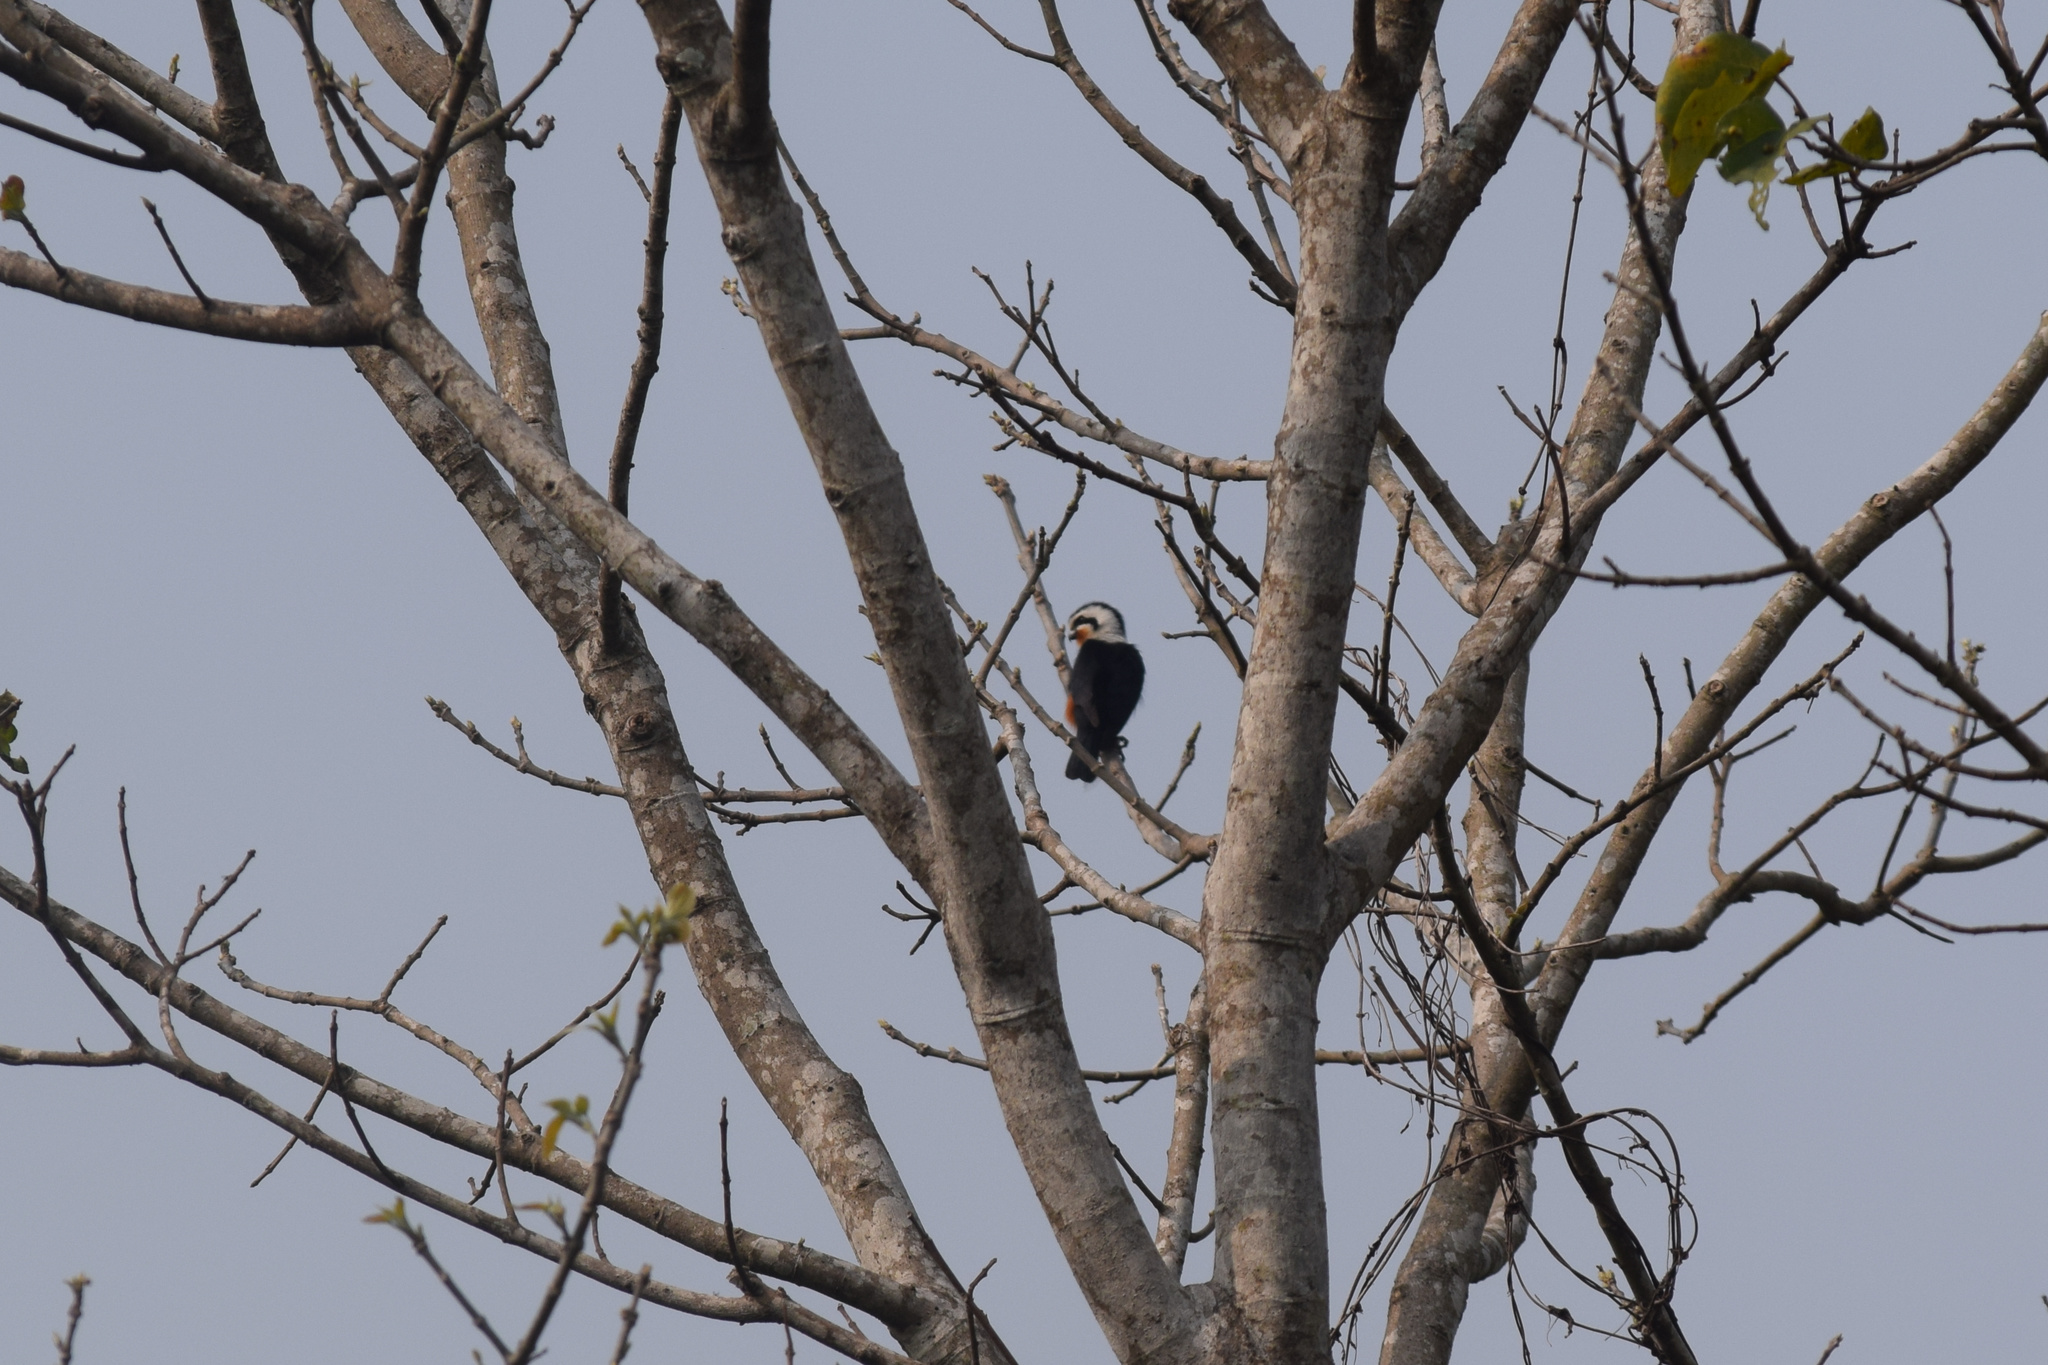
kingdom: Animalia
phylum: Chordata
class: Aves
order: Falconiformes
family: Falconidae
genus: Microhierax
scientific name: Microhierax caerulescens
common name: Collared falconet
